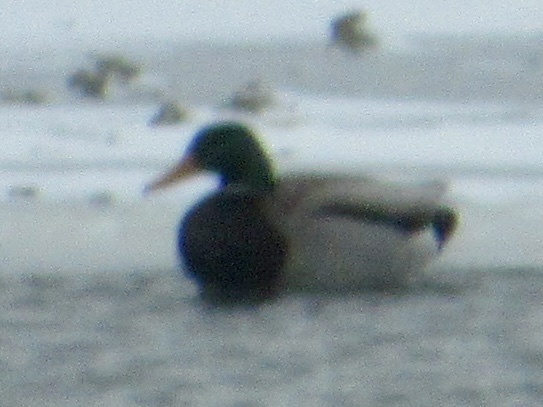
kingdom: Animalia
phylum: Chordata
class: Aves
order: Anseriformes
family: Anatidae
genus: Anas
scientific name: Anas platyrhynchos
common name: Mallard
